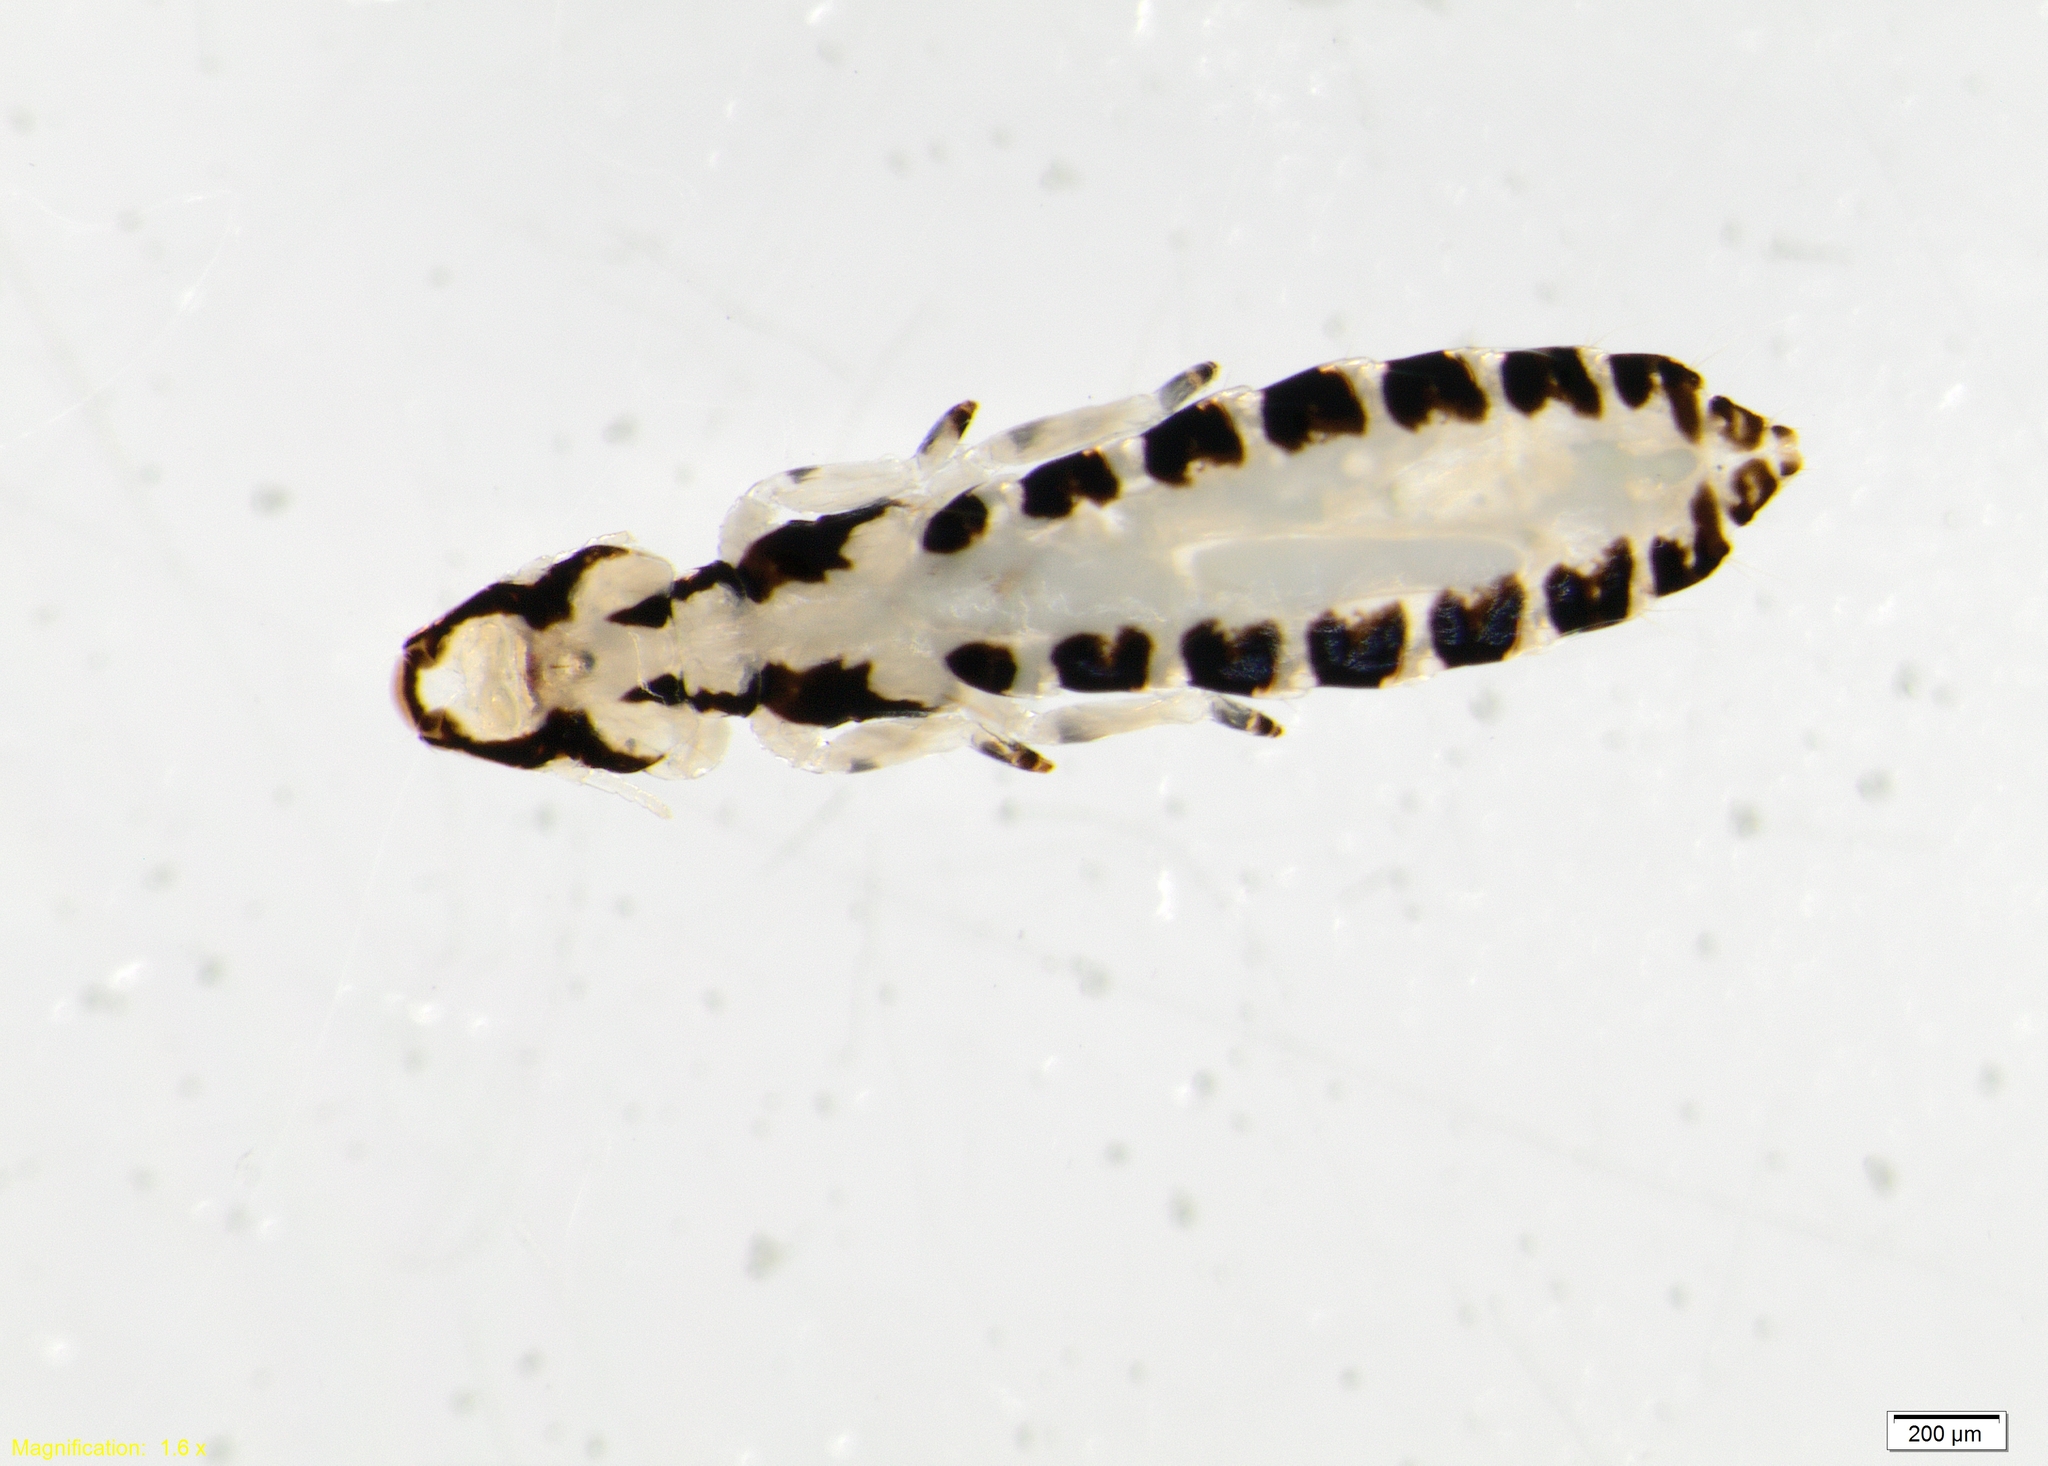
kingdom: Animalia
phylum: Arthropoda
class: Insecta
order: Psocodea
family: Philopteridae
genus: Paraclisis
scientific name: Paraclisis diomedeae
